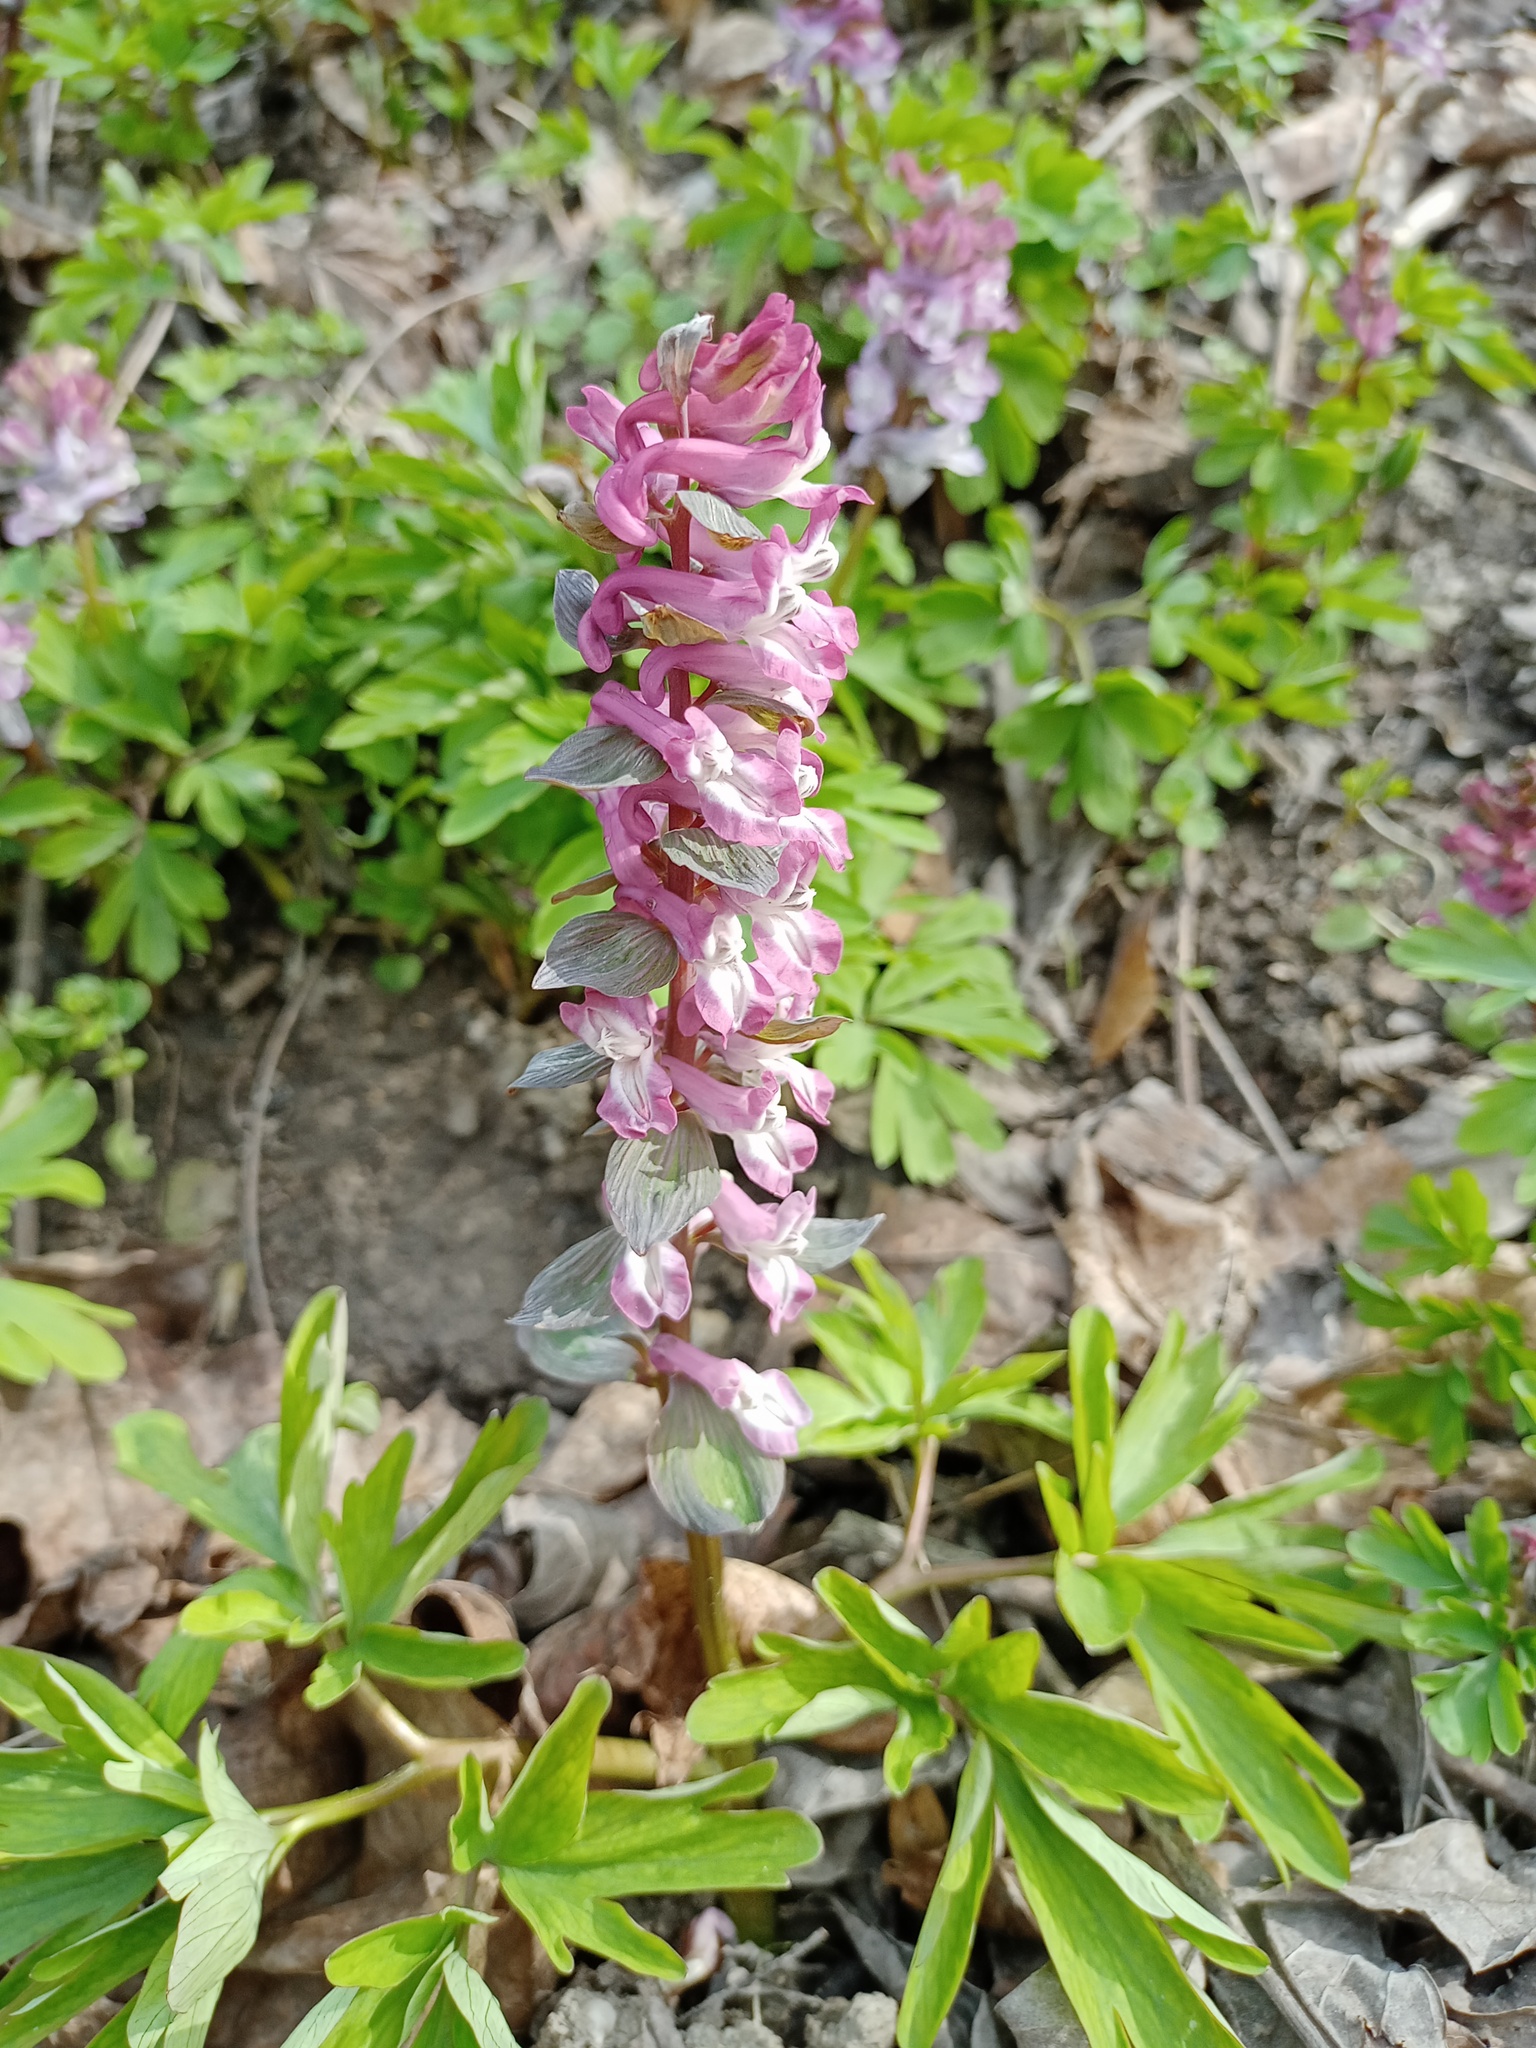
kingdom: Plantae
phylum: Tracheophyta
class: Magnoliopsida
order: Ranunculales
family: Papaveraceae
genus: Corydalis
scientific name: Corydalis cava
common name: Hollowroot
